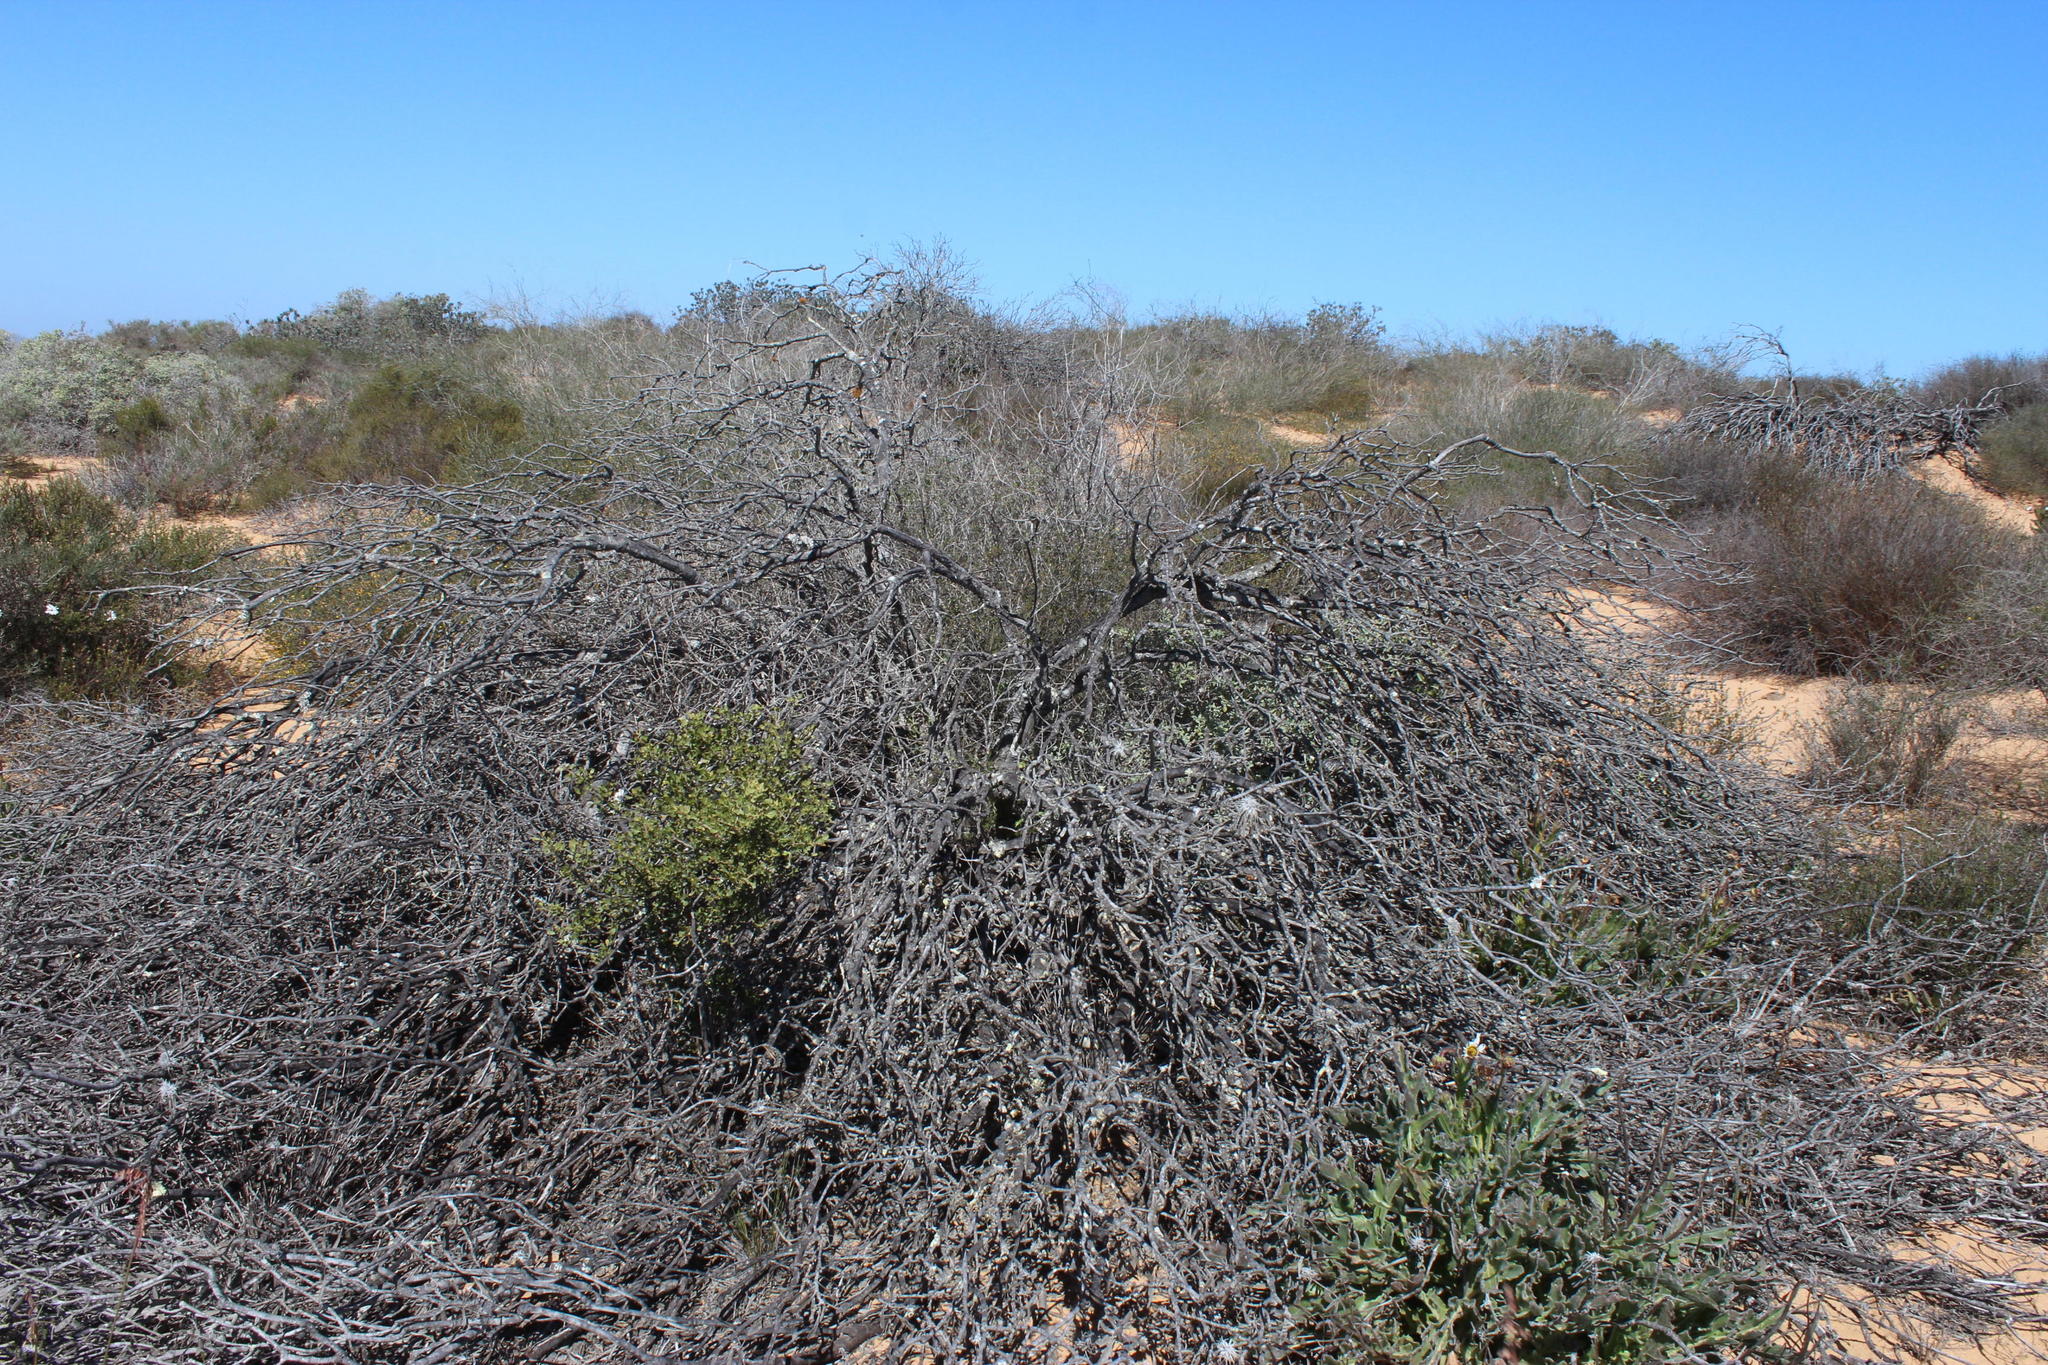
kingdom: Plantae
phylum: Tracheophyta
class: Magnoliopsida
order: Proteales
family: Proteaceae
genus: Leucospermum
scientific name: Leucospermum praemorsum
